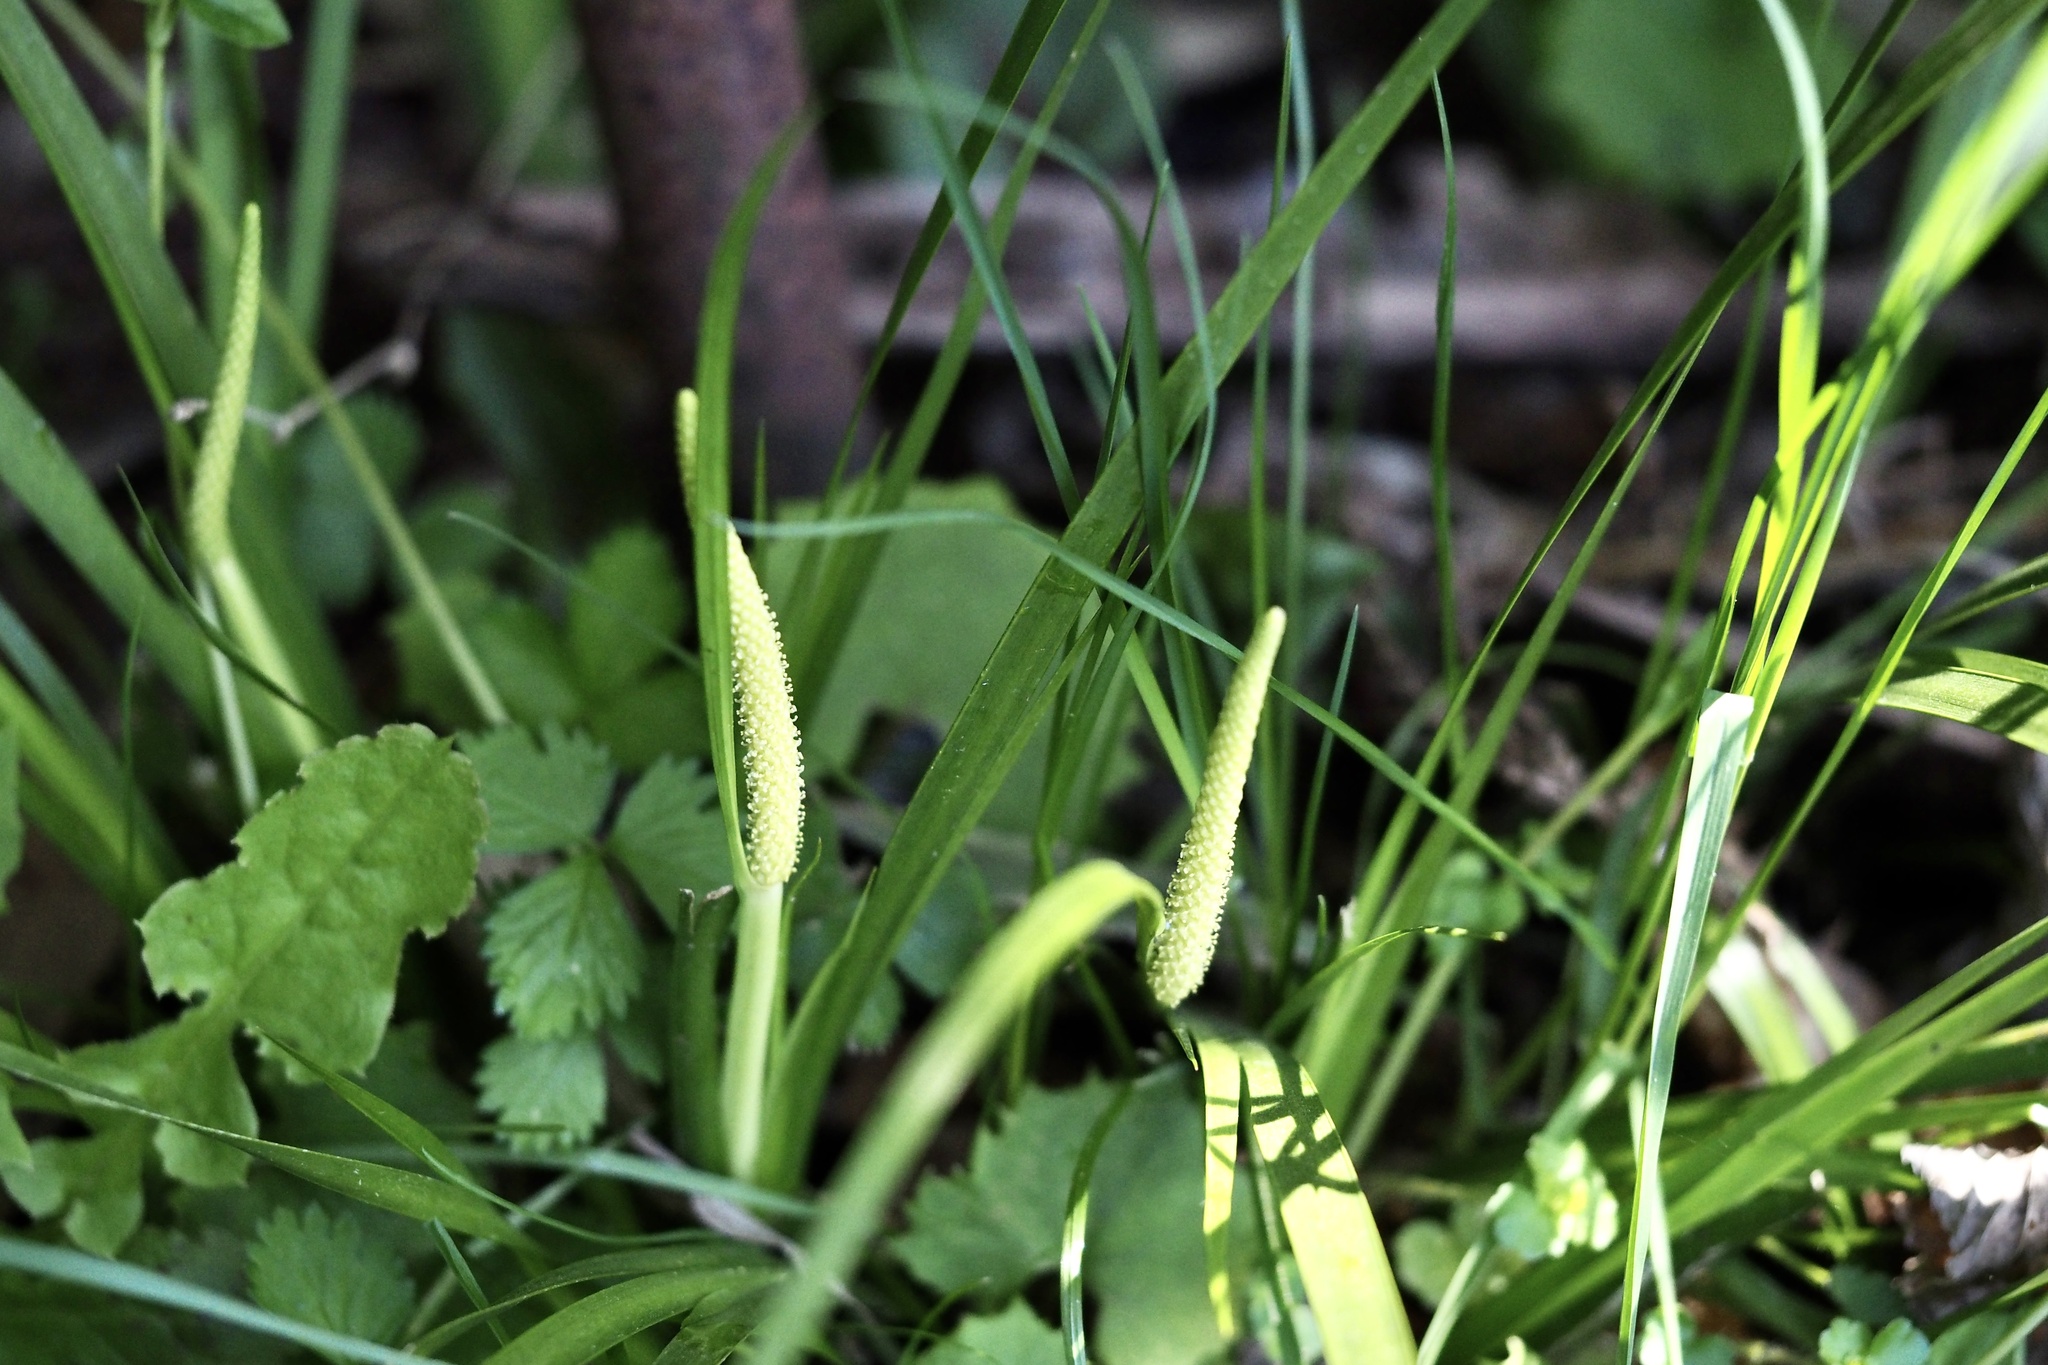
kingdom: Plantae
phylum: Tracheophyta
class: Liliopsida
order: Acorales
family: Acoraceae
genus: Acorus
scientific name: Acorus gramineus
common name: Slender sweet-flag
